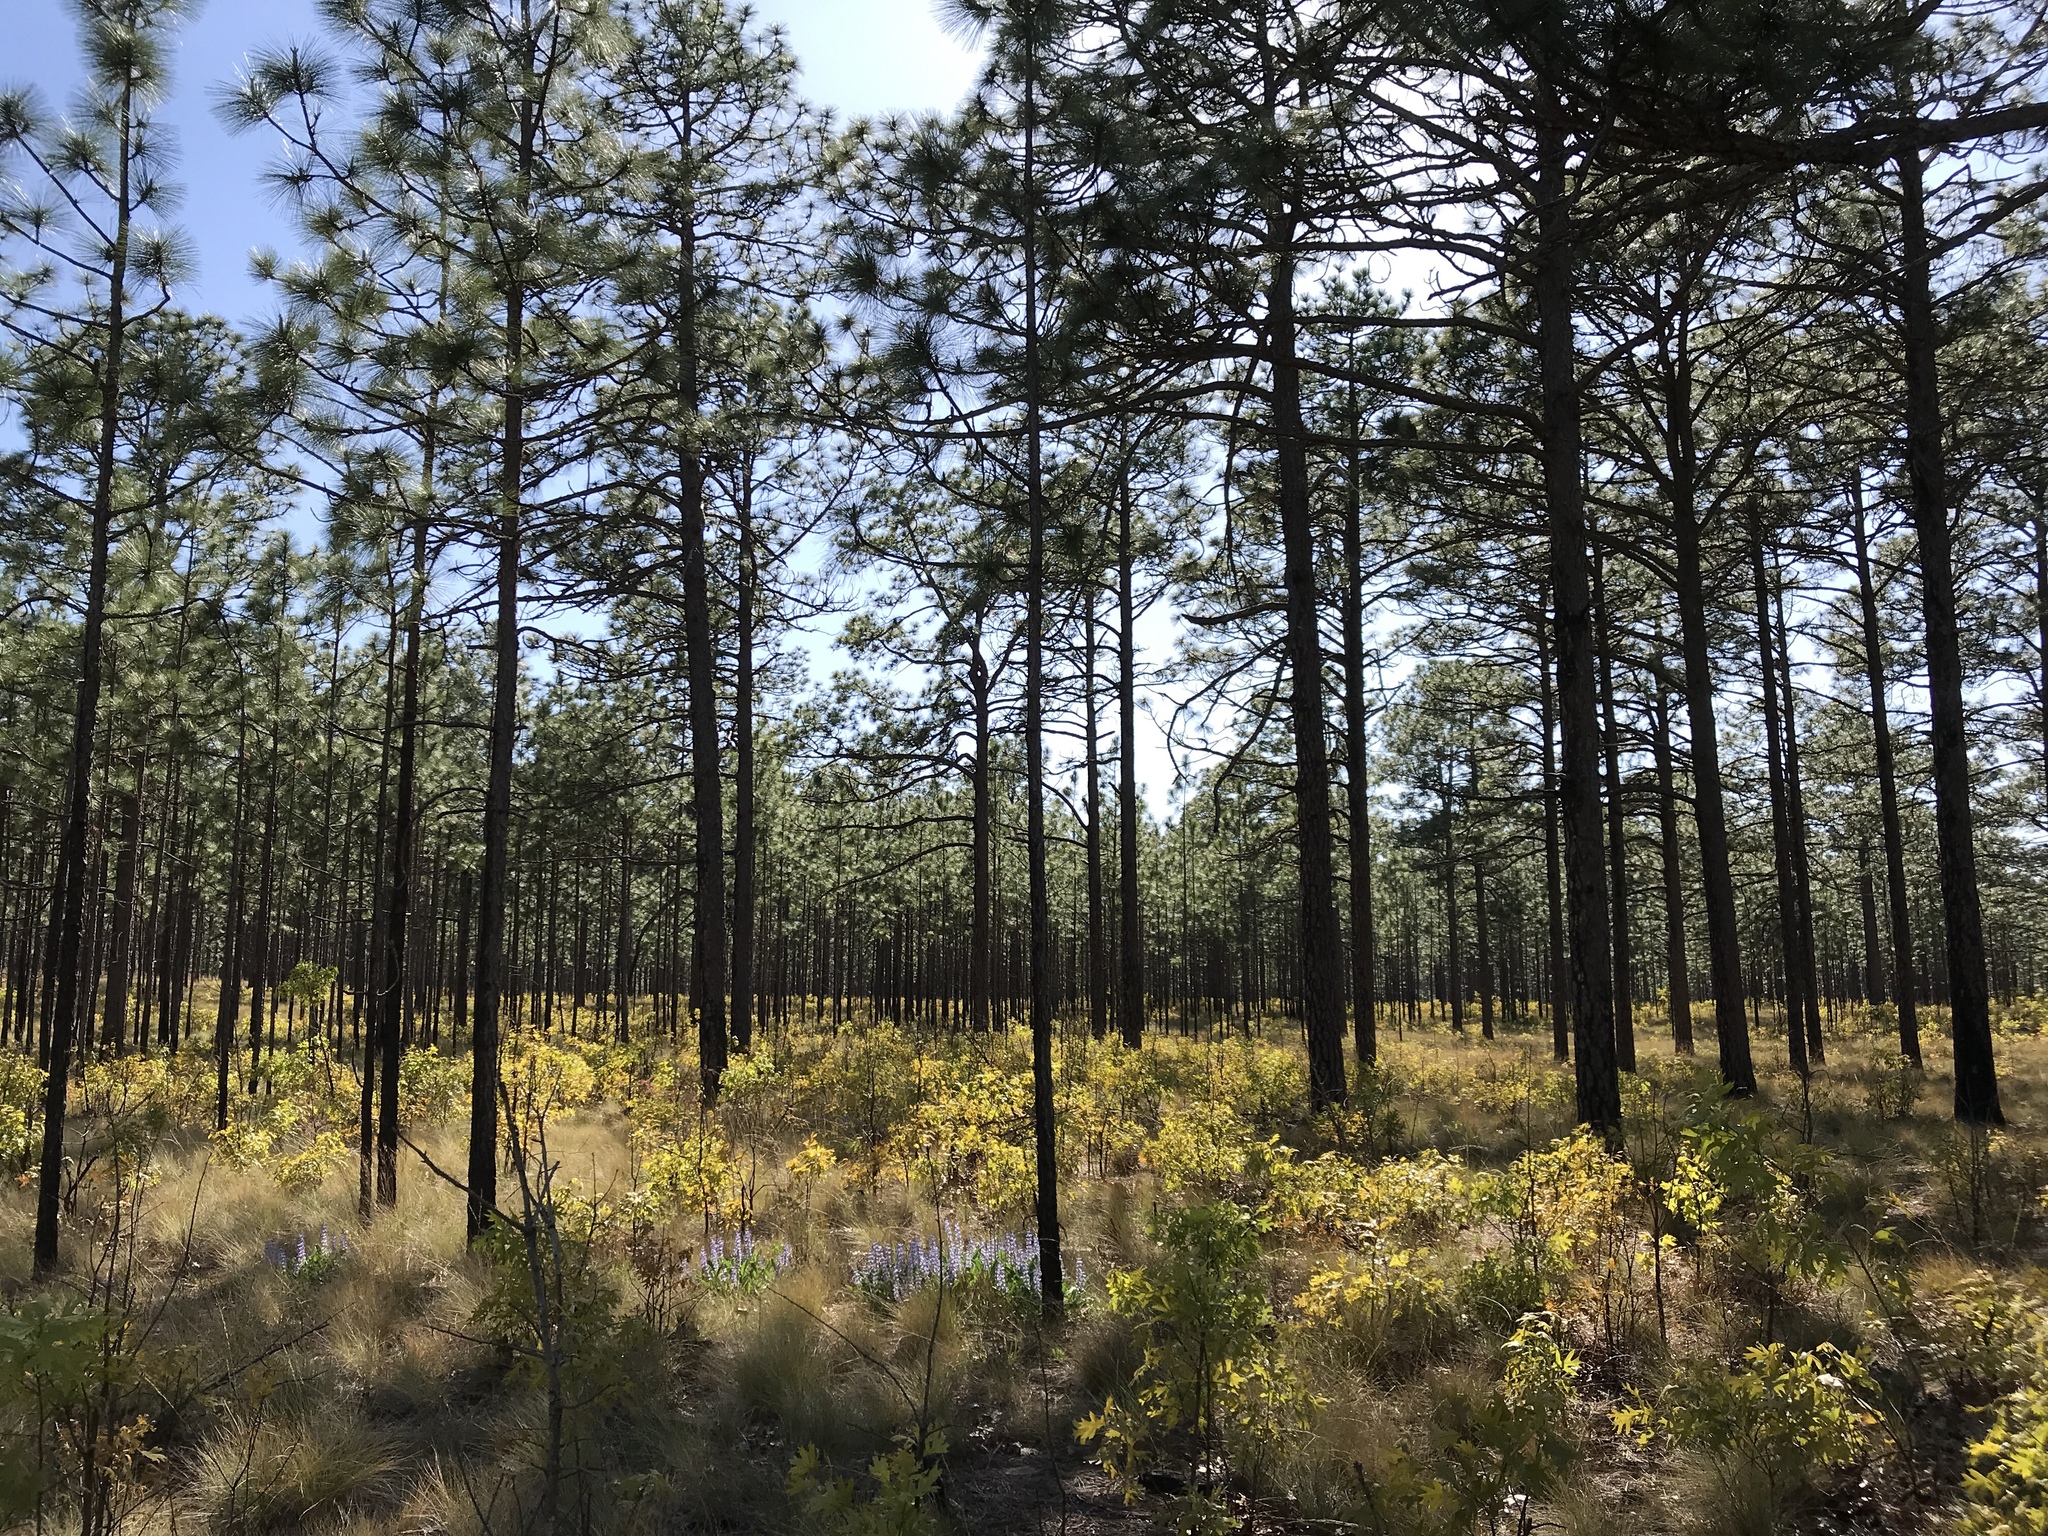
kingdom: Plantae
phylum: Tracheophyta
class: Pinopsida
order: Pinales
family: Pinaceae
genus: Pinus
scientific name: Pinus palustris
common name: Longleaf pine
